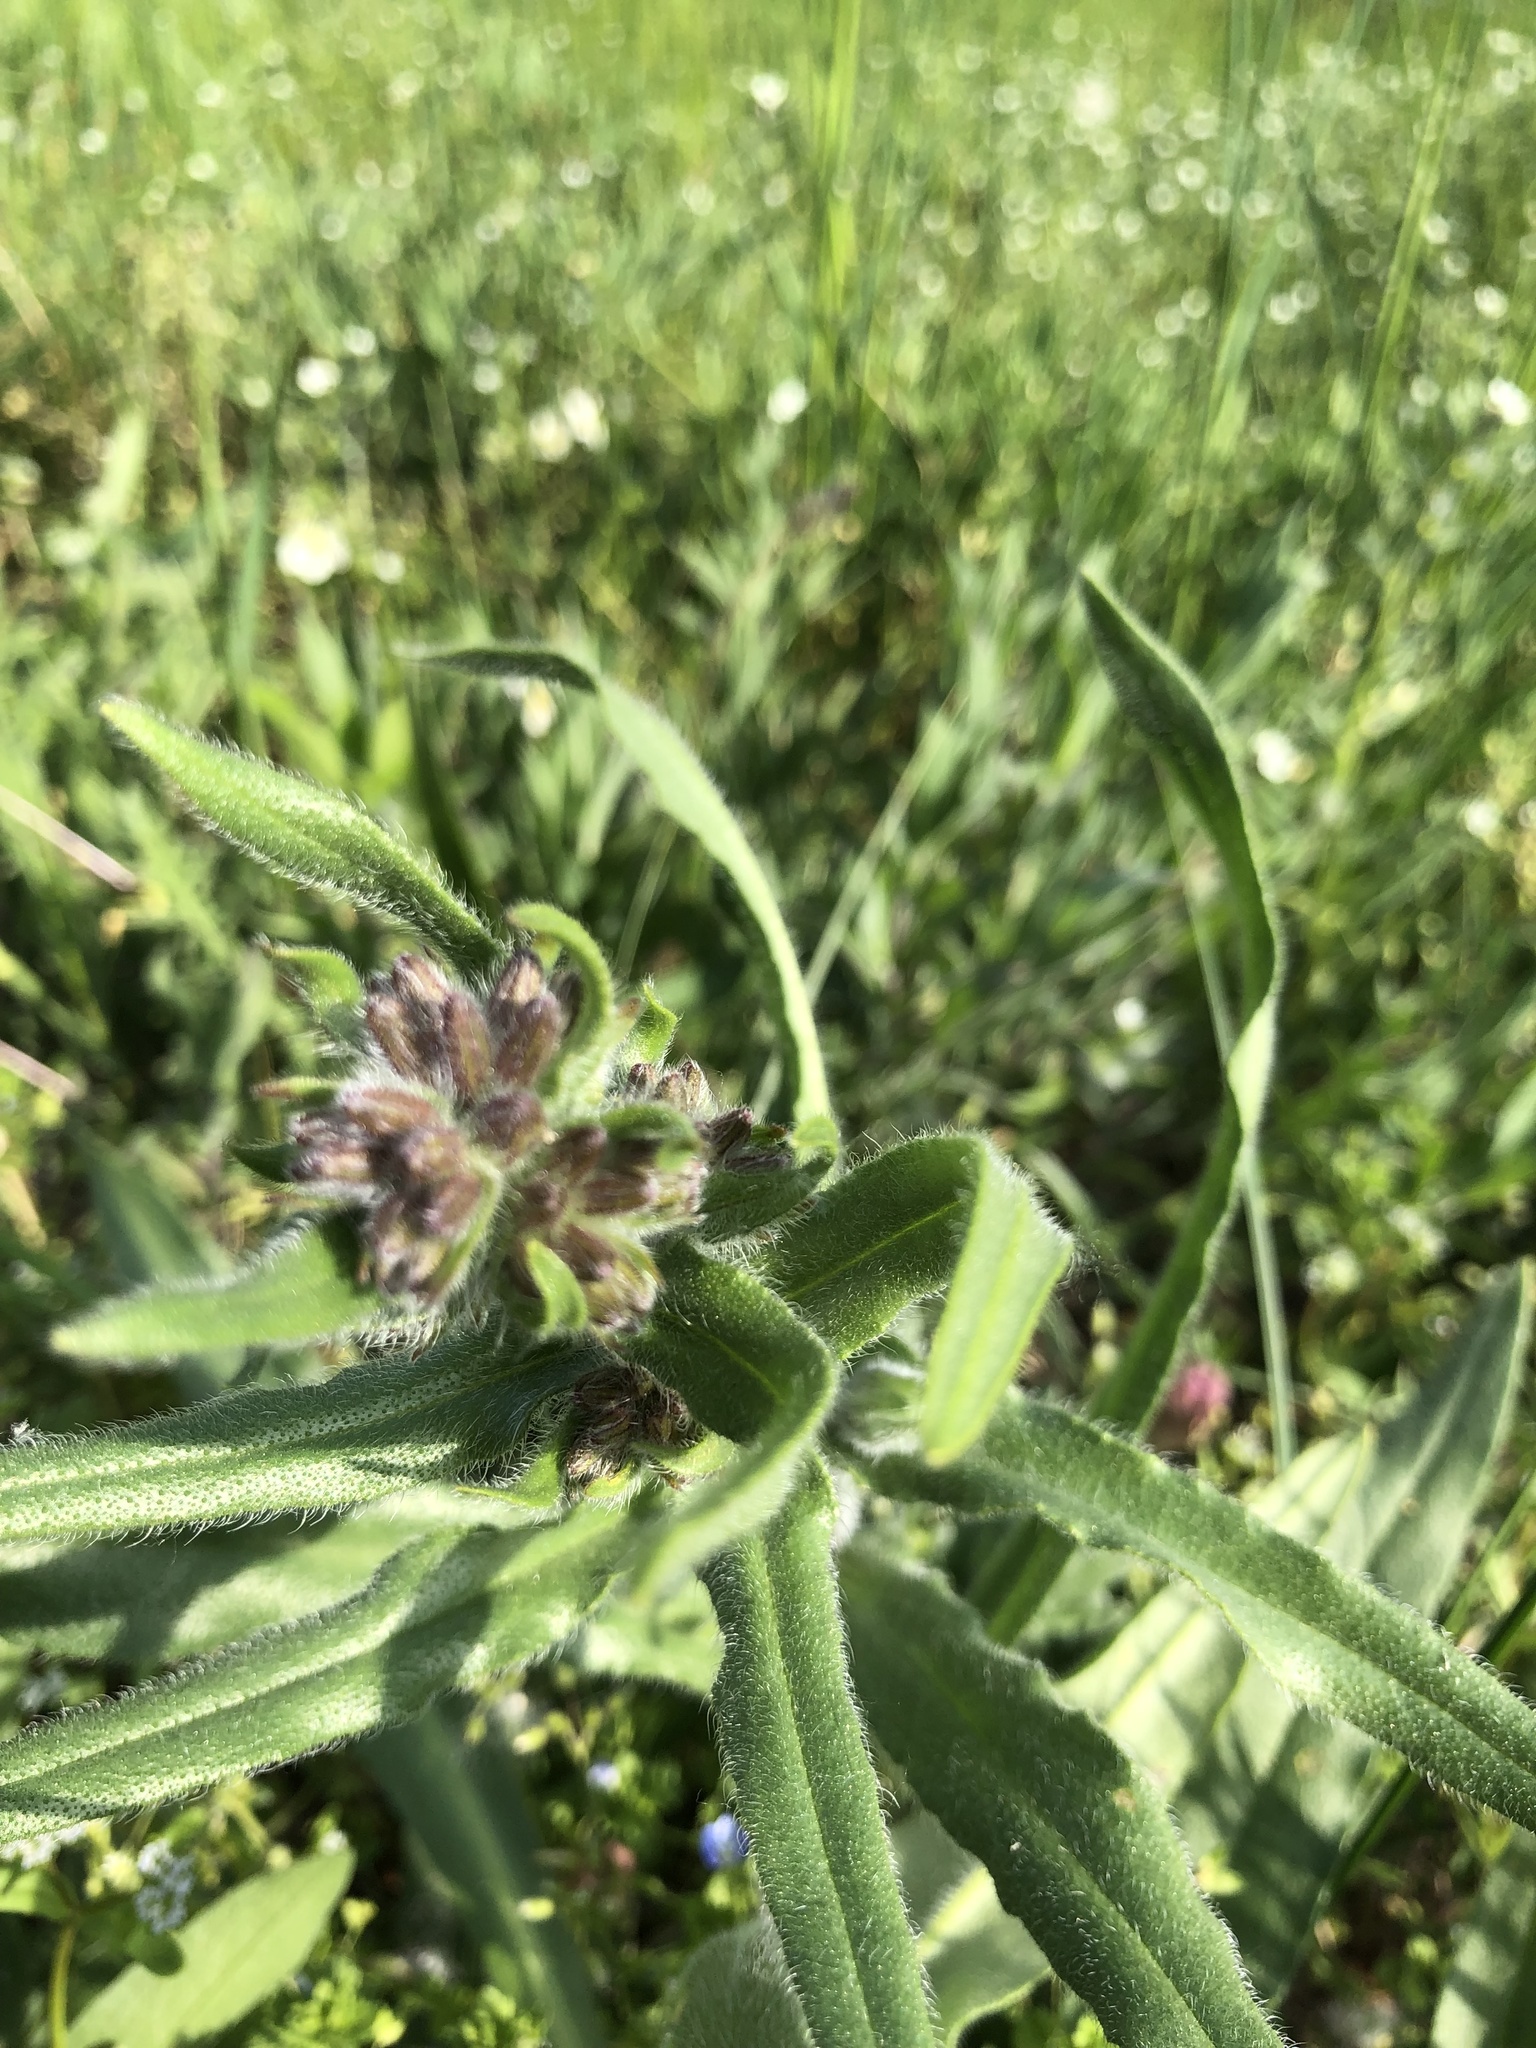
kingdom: Plantae
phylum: Tracheophyta
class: Magnoliopsida
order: Boraginales
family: Boraginaceae
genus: Anchusa
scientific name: Anchusa officinalis
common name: Alkanet
